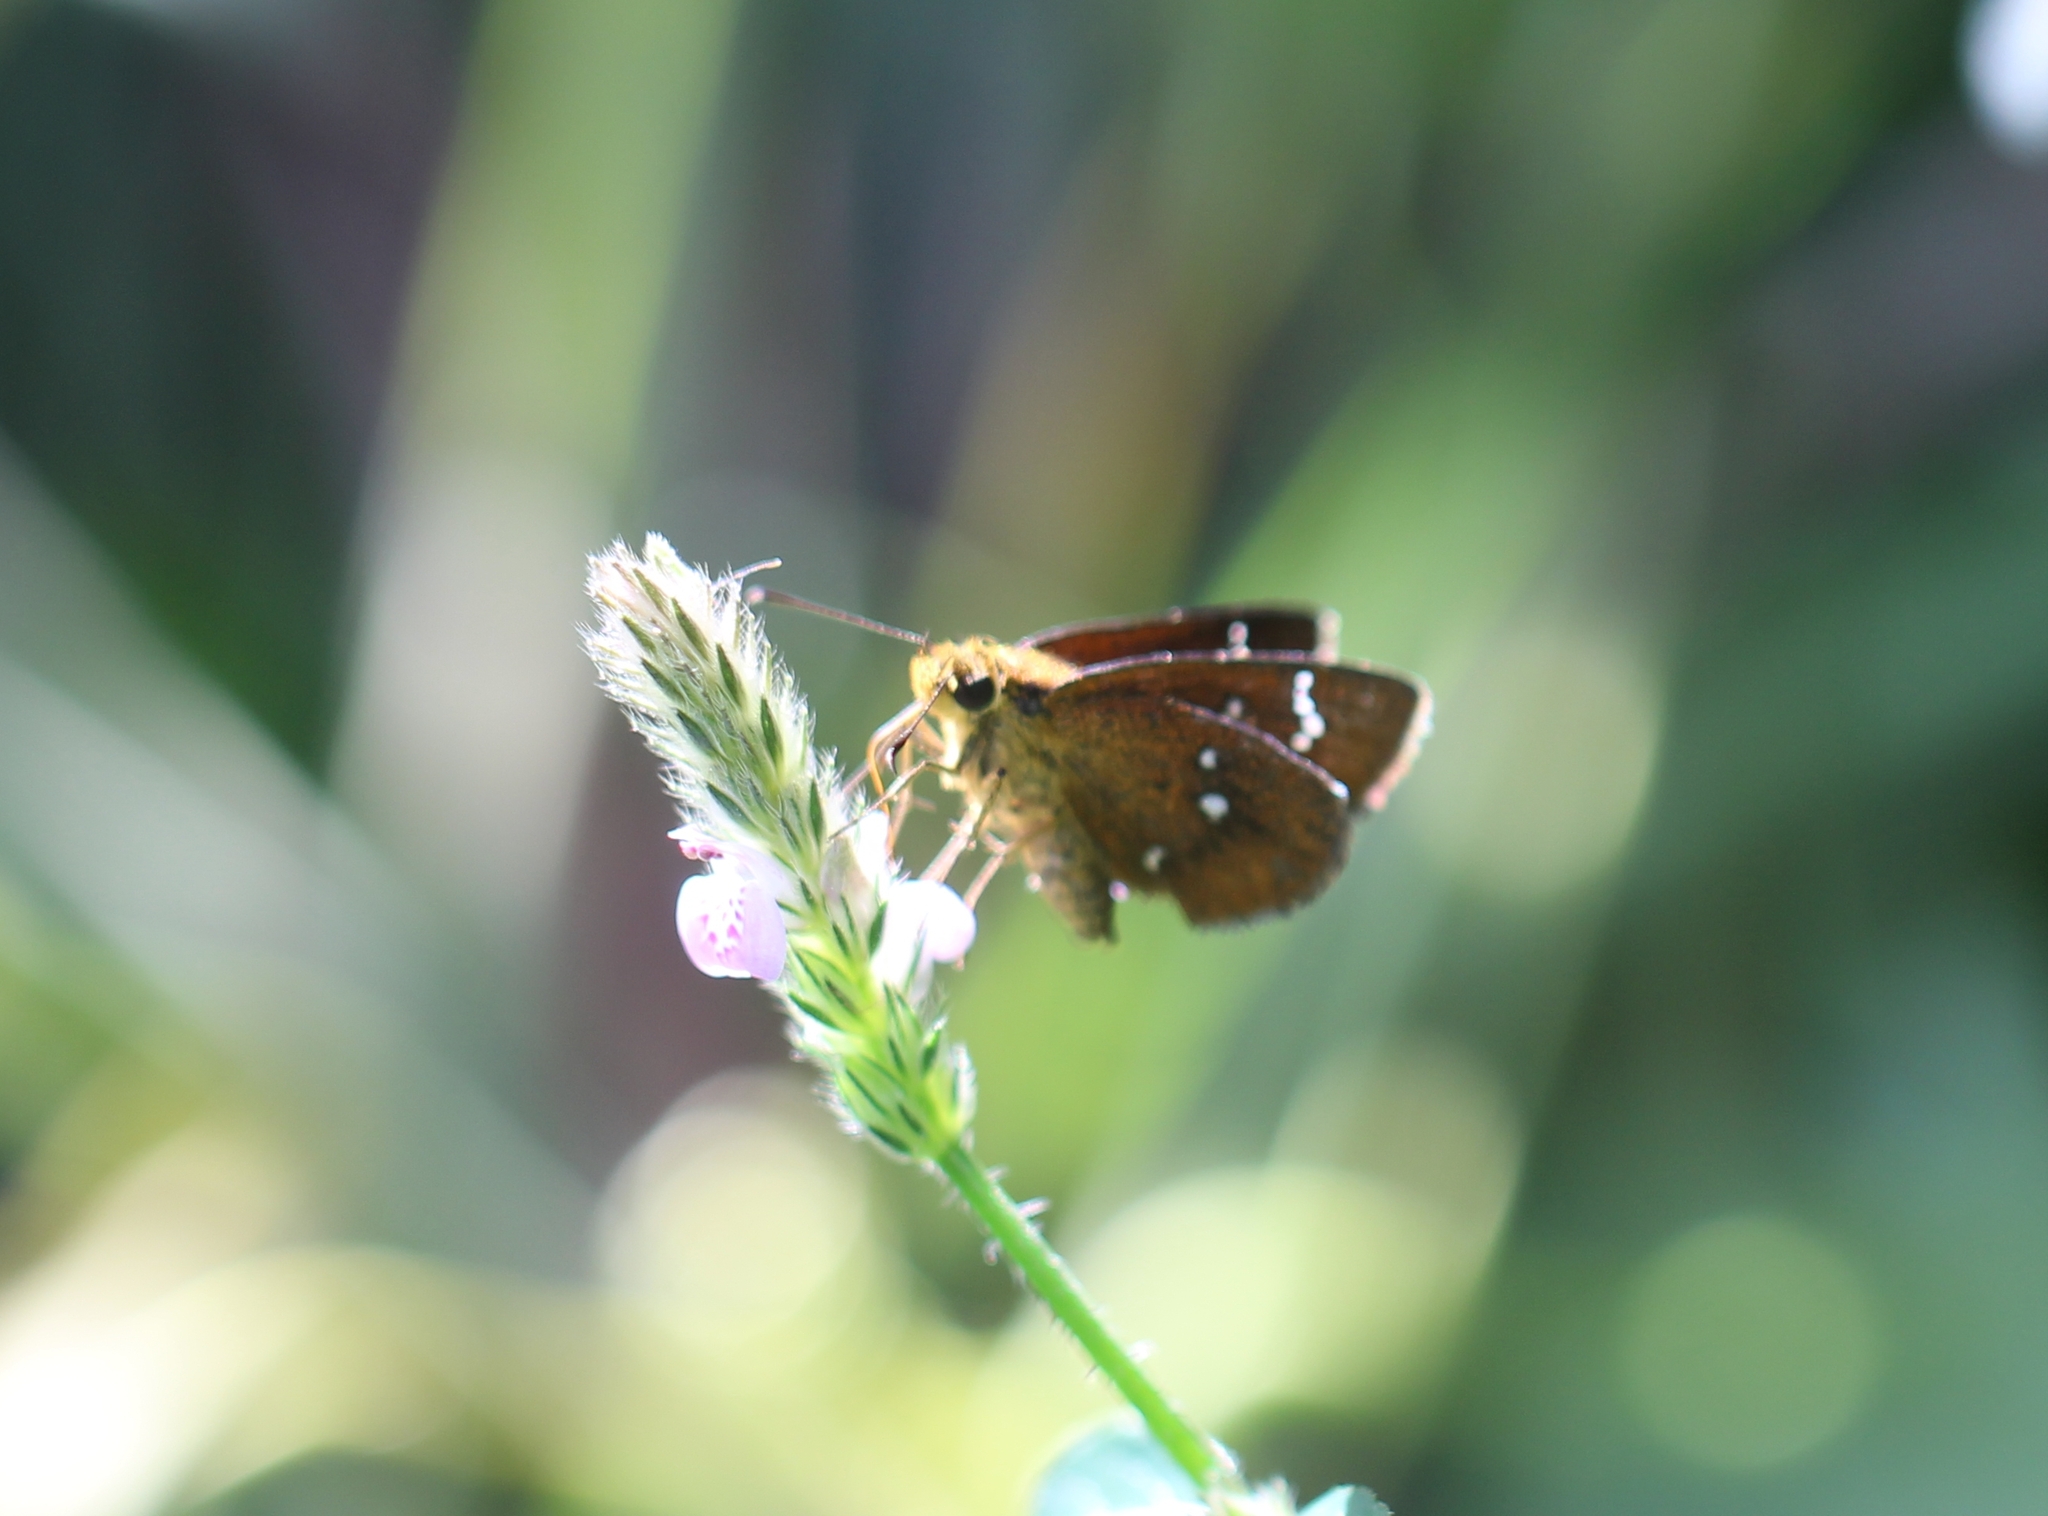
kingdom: Animalia
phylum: Arthropoda
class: Insecta
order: Lepidoptera
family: Hesperiidae
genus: Iambrix
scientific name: Iambrix salsala
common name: Chestnut bob
